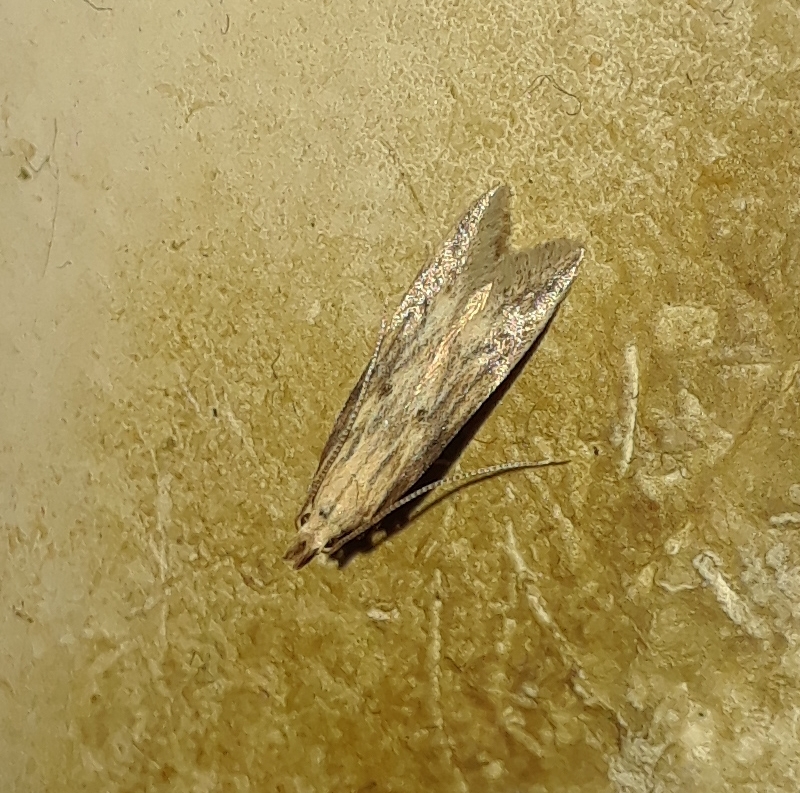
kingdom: Animalia
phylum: Arthropoda
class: Insecta
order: Lepidoptera
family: Gelechiidae
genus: Metzneria
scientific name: Metzneria lappella
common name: Burdock neb
